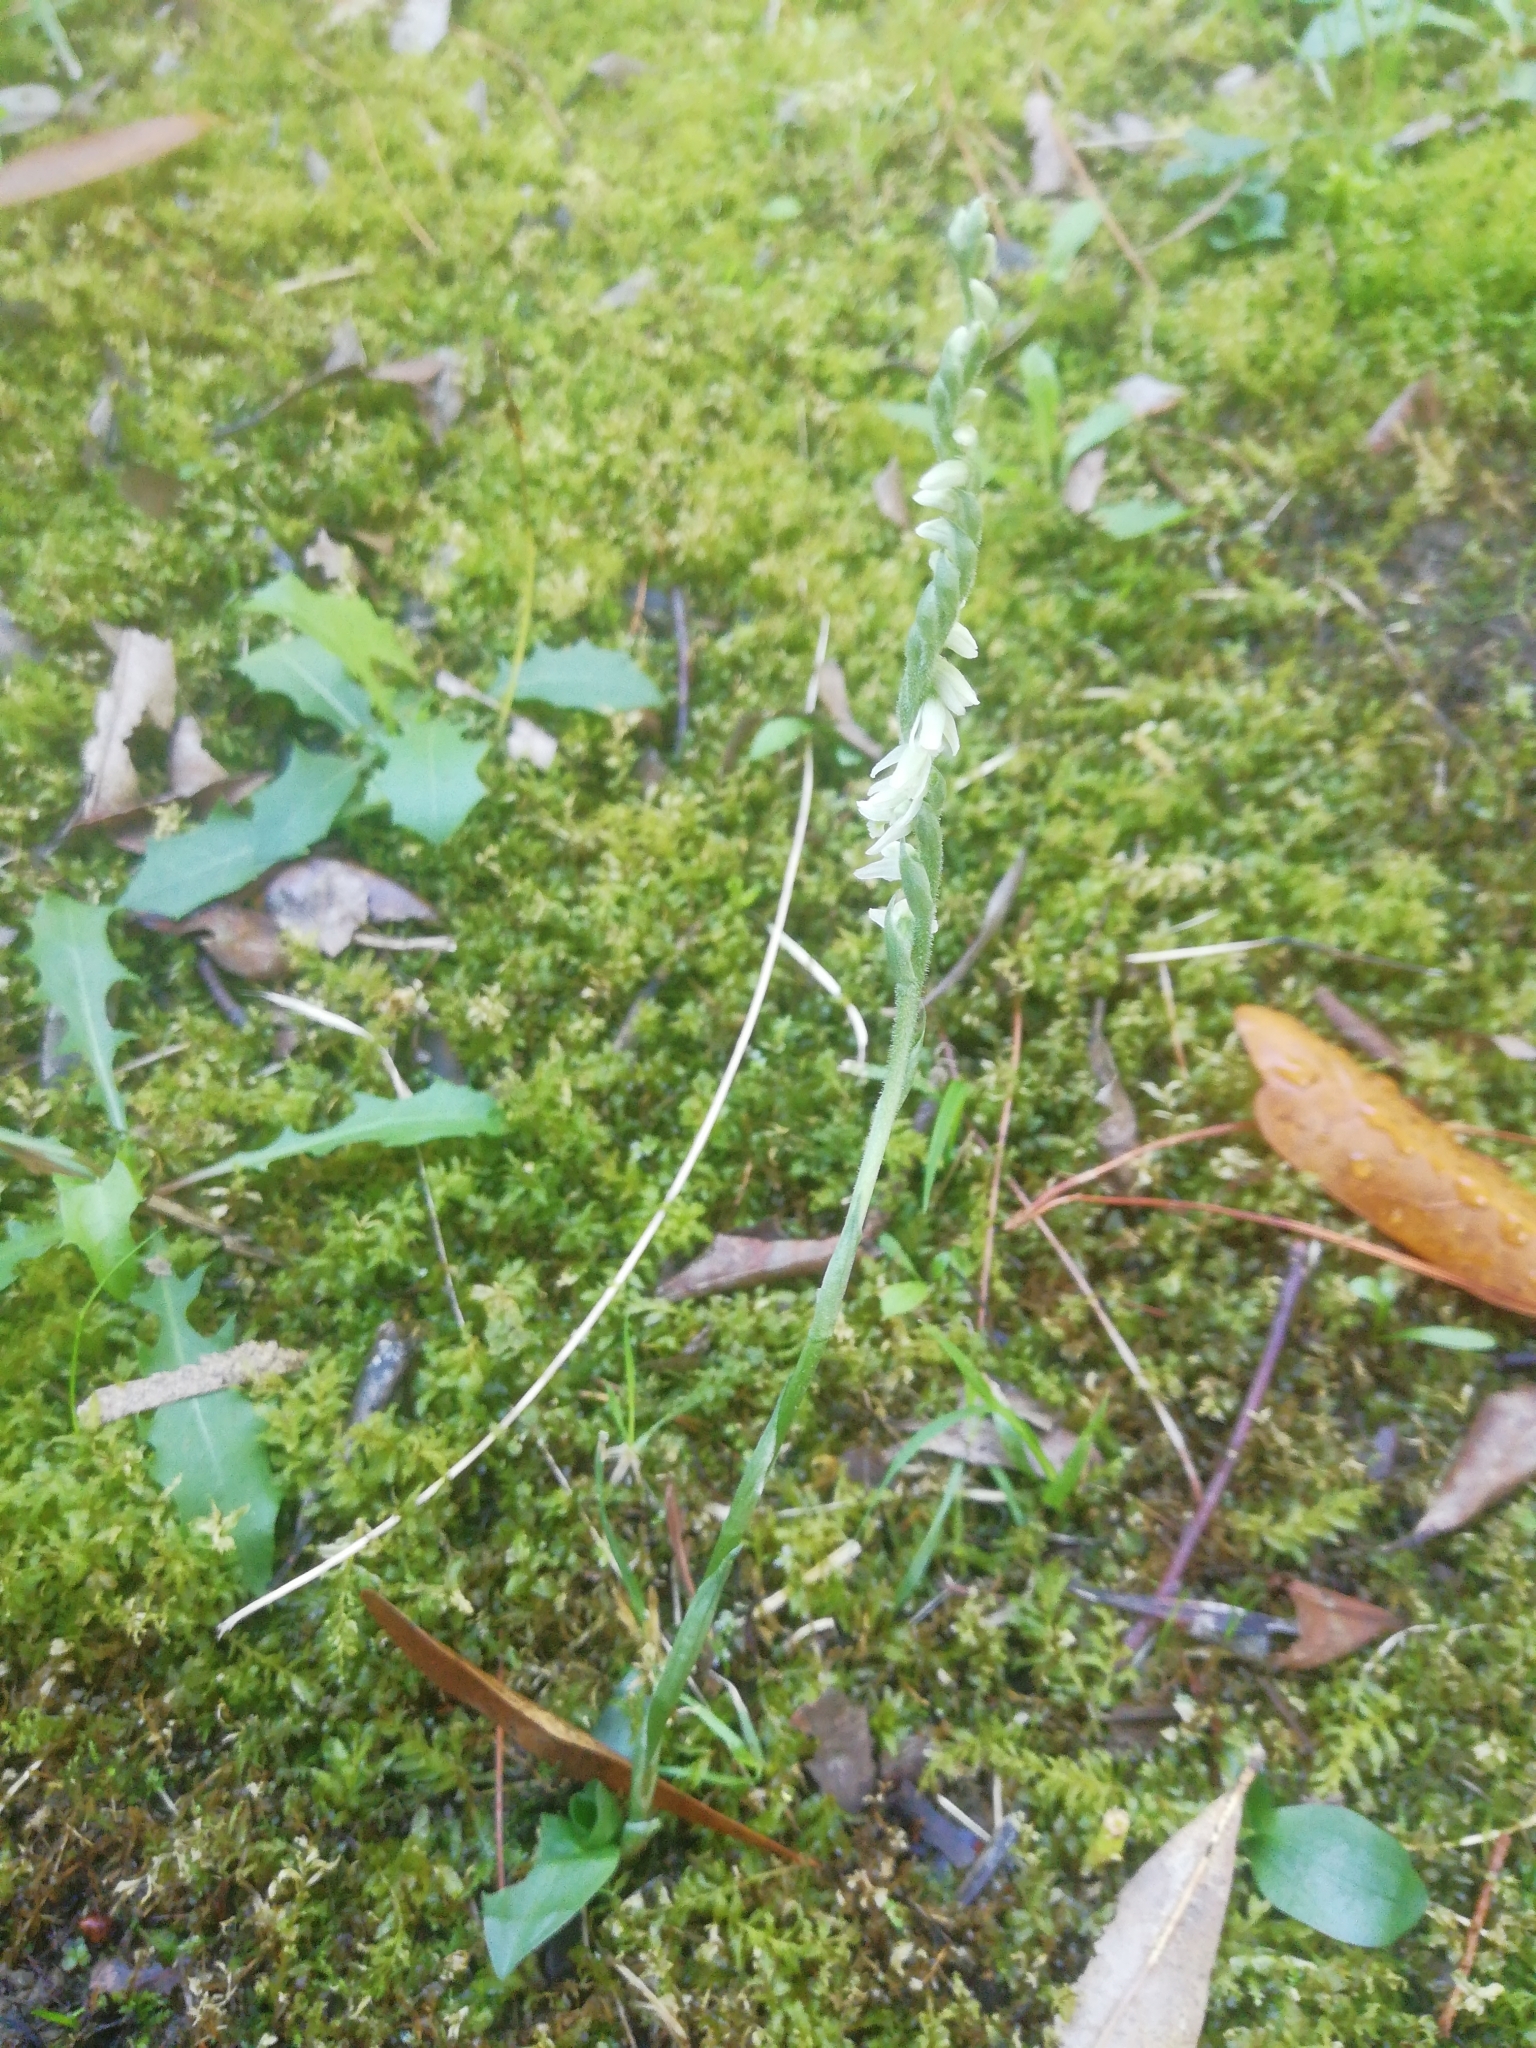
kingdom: Plantae
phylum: Tracheophyta
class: Liliopsida
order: Asparagales
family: Orchidaceae
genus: Spiranthes
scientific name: Spiranthes spiralis
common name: Autumn lady's-tresses
